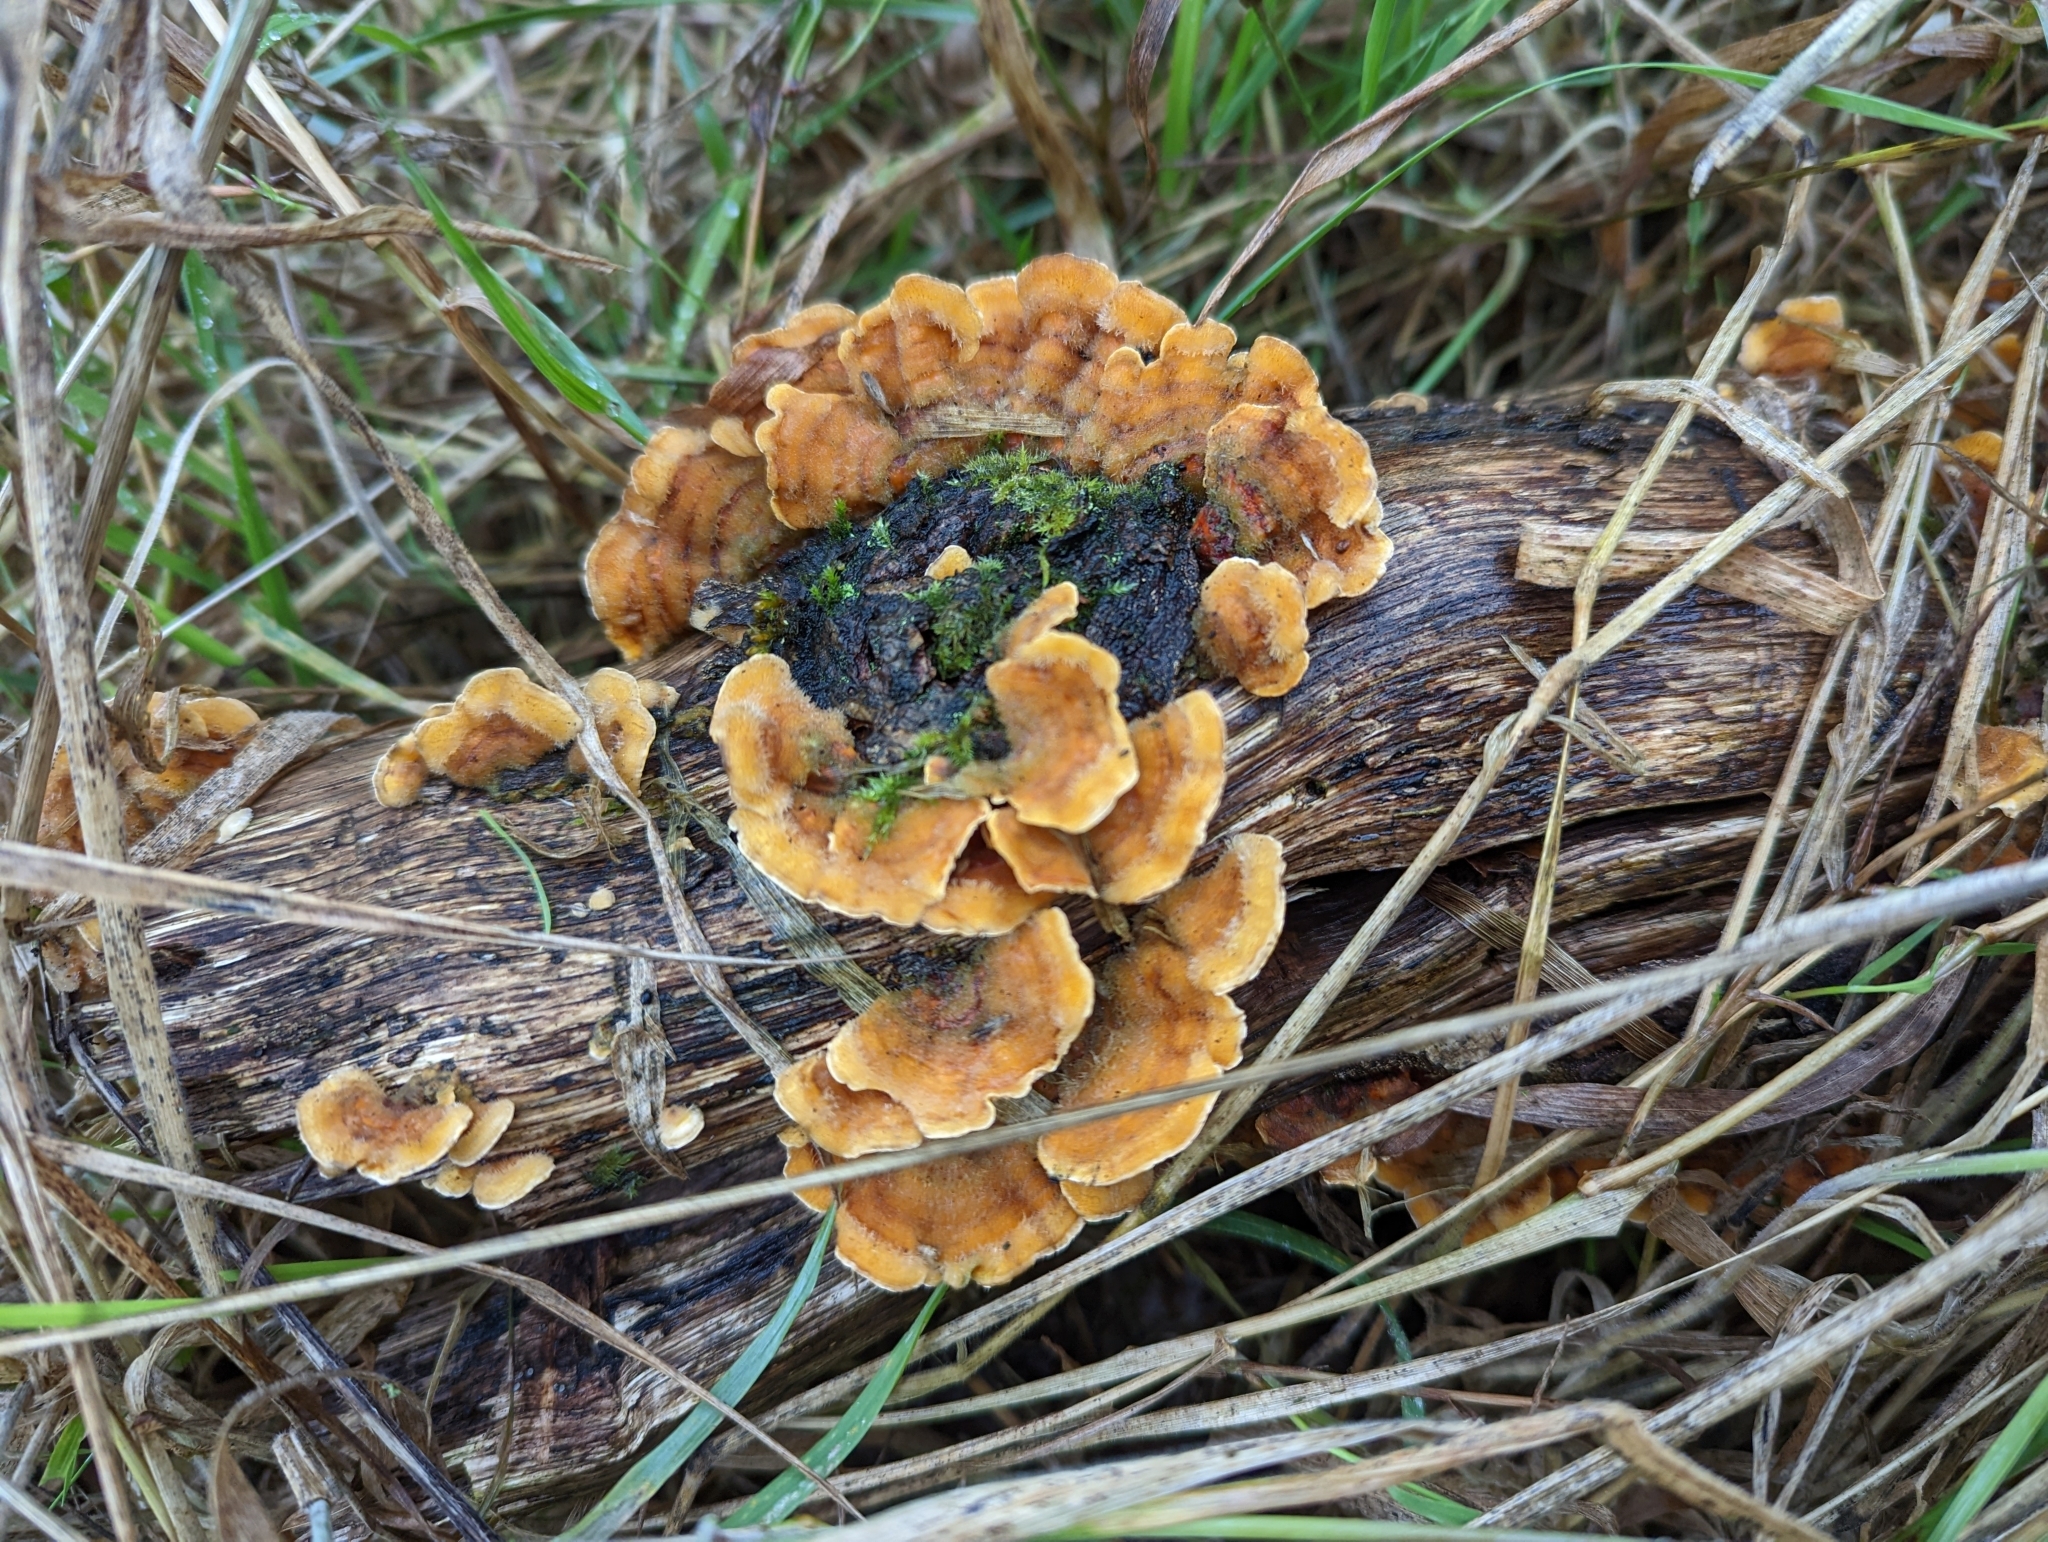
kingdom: Fungi
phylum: Basidiomycota
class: Agaricomycetes
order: Russulales
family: Stereaceae
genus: Stereum
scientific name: Stereum hirsutum
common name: Hairy curtain crust
